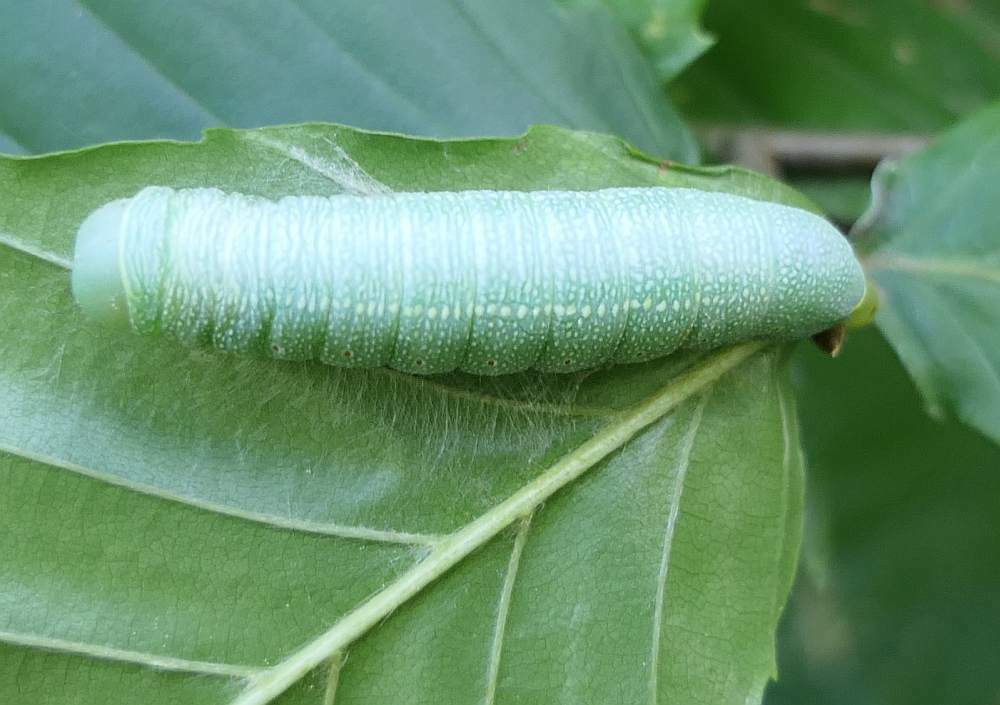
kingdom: Animalia
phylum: Arthropoda
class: Insecta
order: Lepidoptera
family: Notodontidae
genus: Nadata
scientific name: Nadata gibbosa
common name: White-dotted prominent
